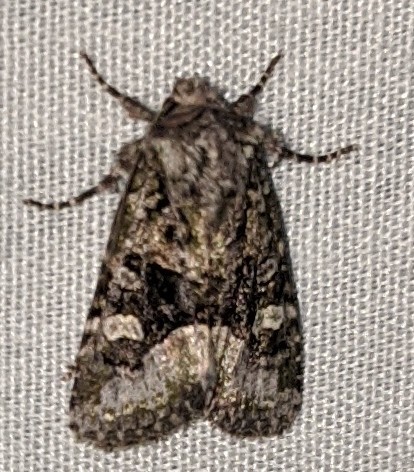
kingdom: Animalia
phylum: Arthropoda
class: Insecta
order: Lepidoptera
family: Noctuidae
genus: Lacinipolia
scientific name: Lacinipolia olivacea
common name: Olive arches moth
